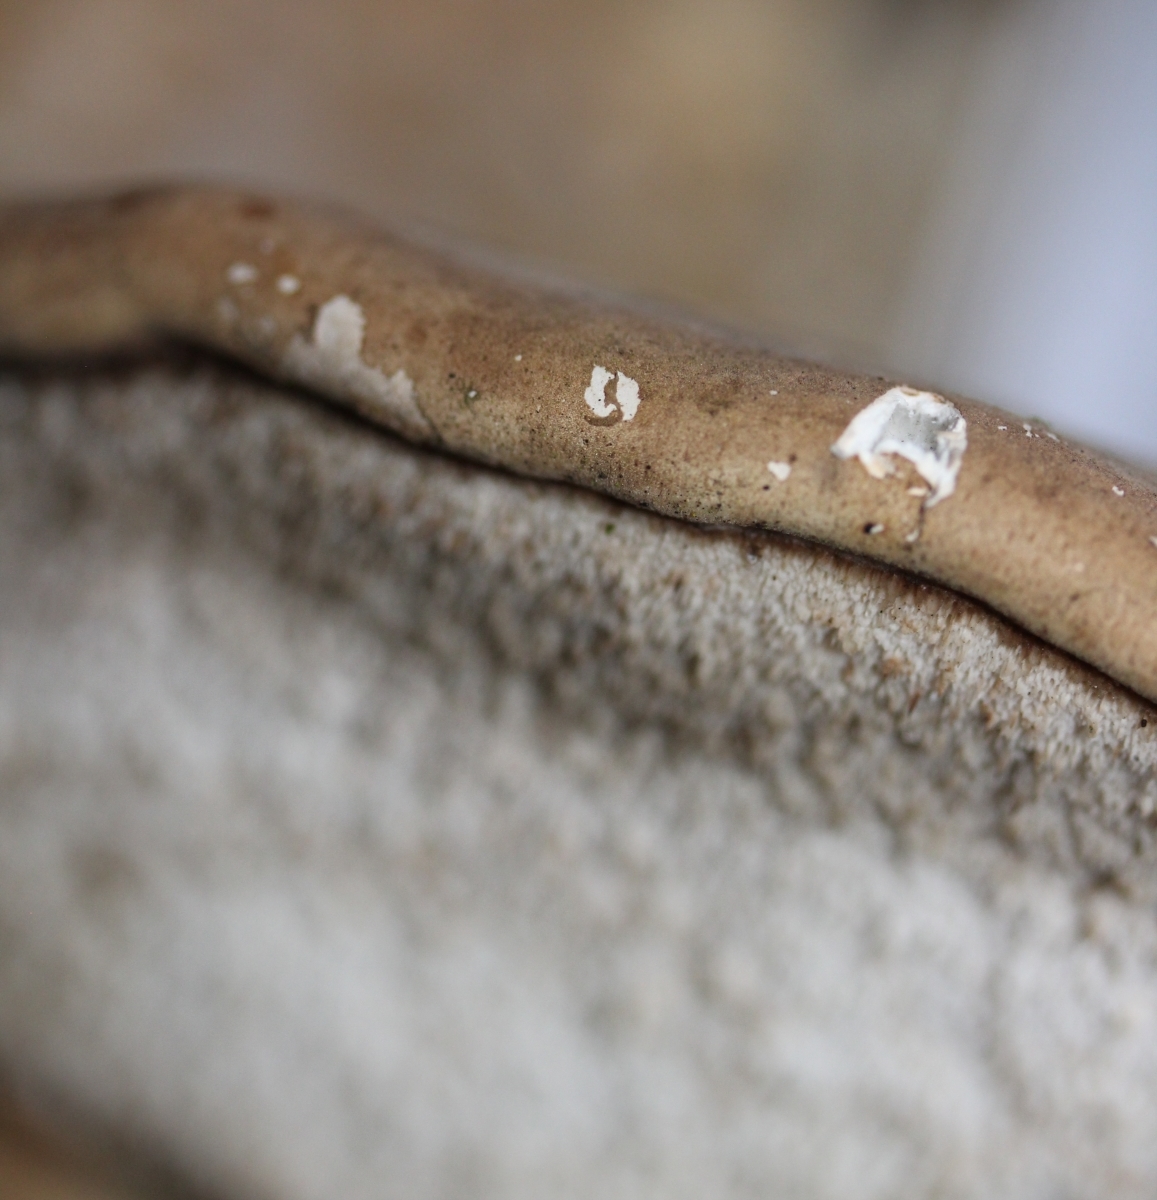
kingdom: Fungi
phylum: Basidiomycota
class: Agaricomycetes
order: Polyporales
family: Fomitopsidaceae
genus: Fomitopsis
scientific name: Fomitopsis betulina
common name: Birch polypore
